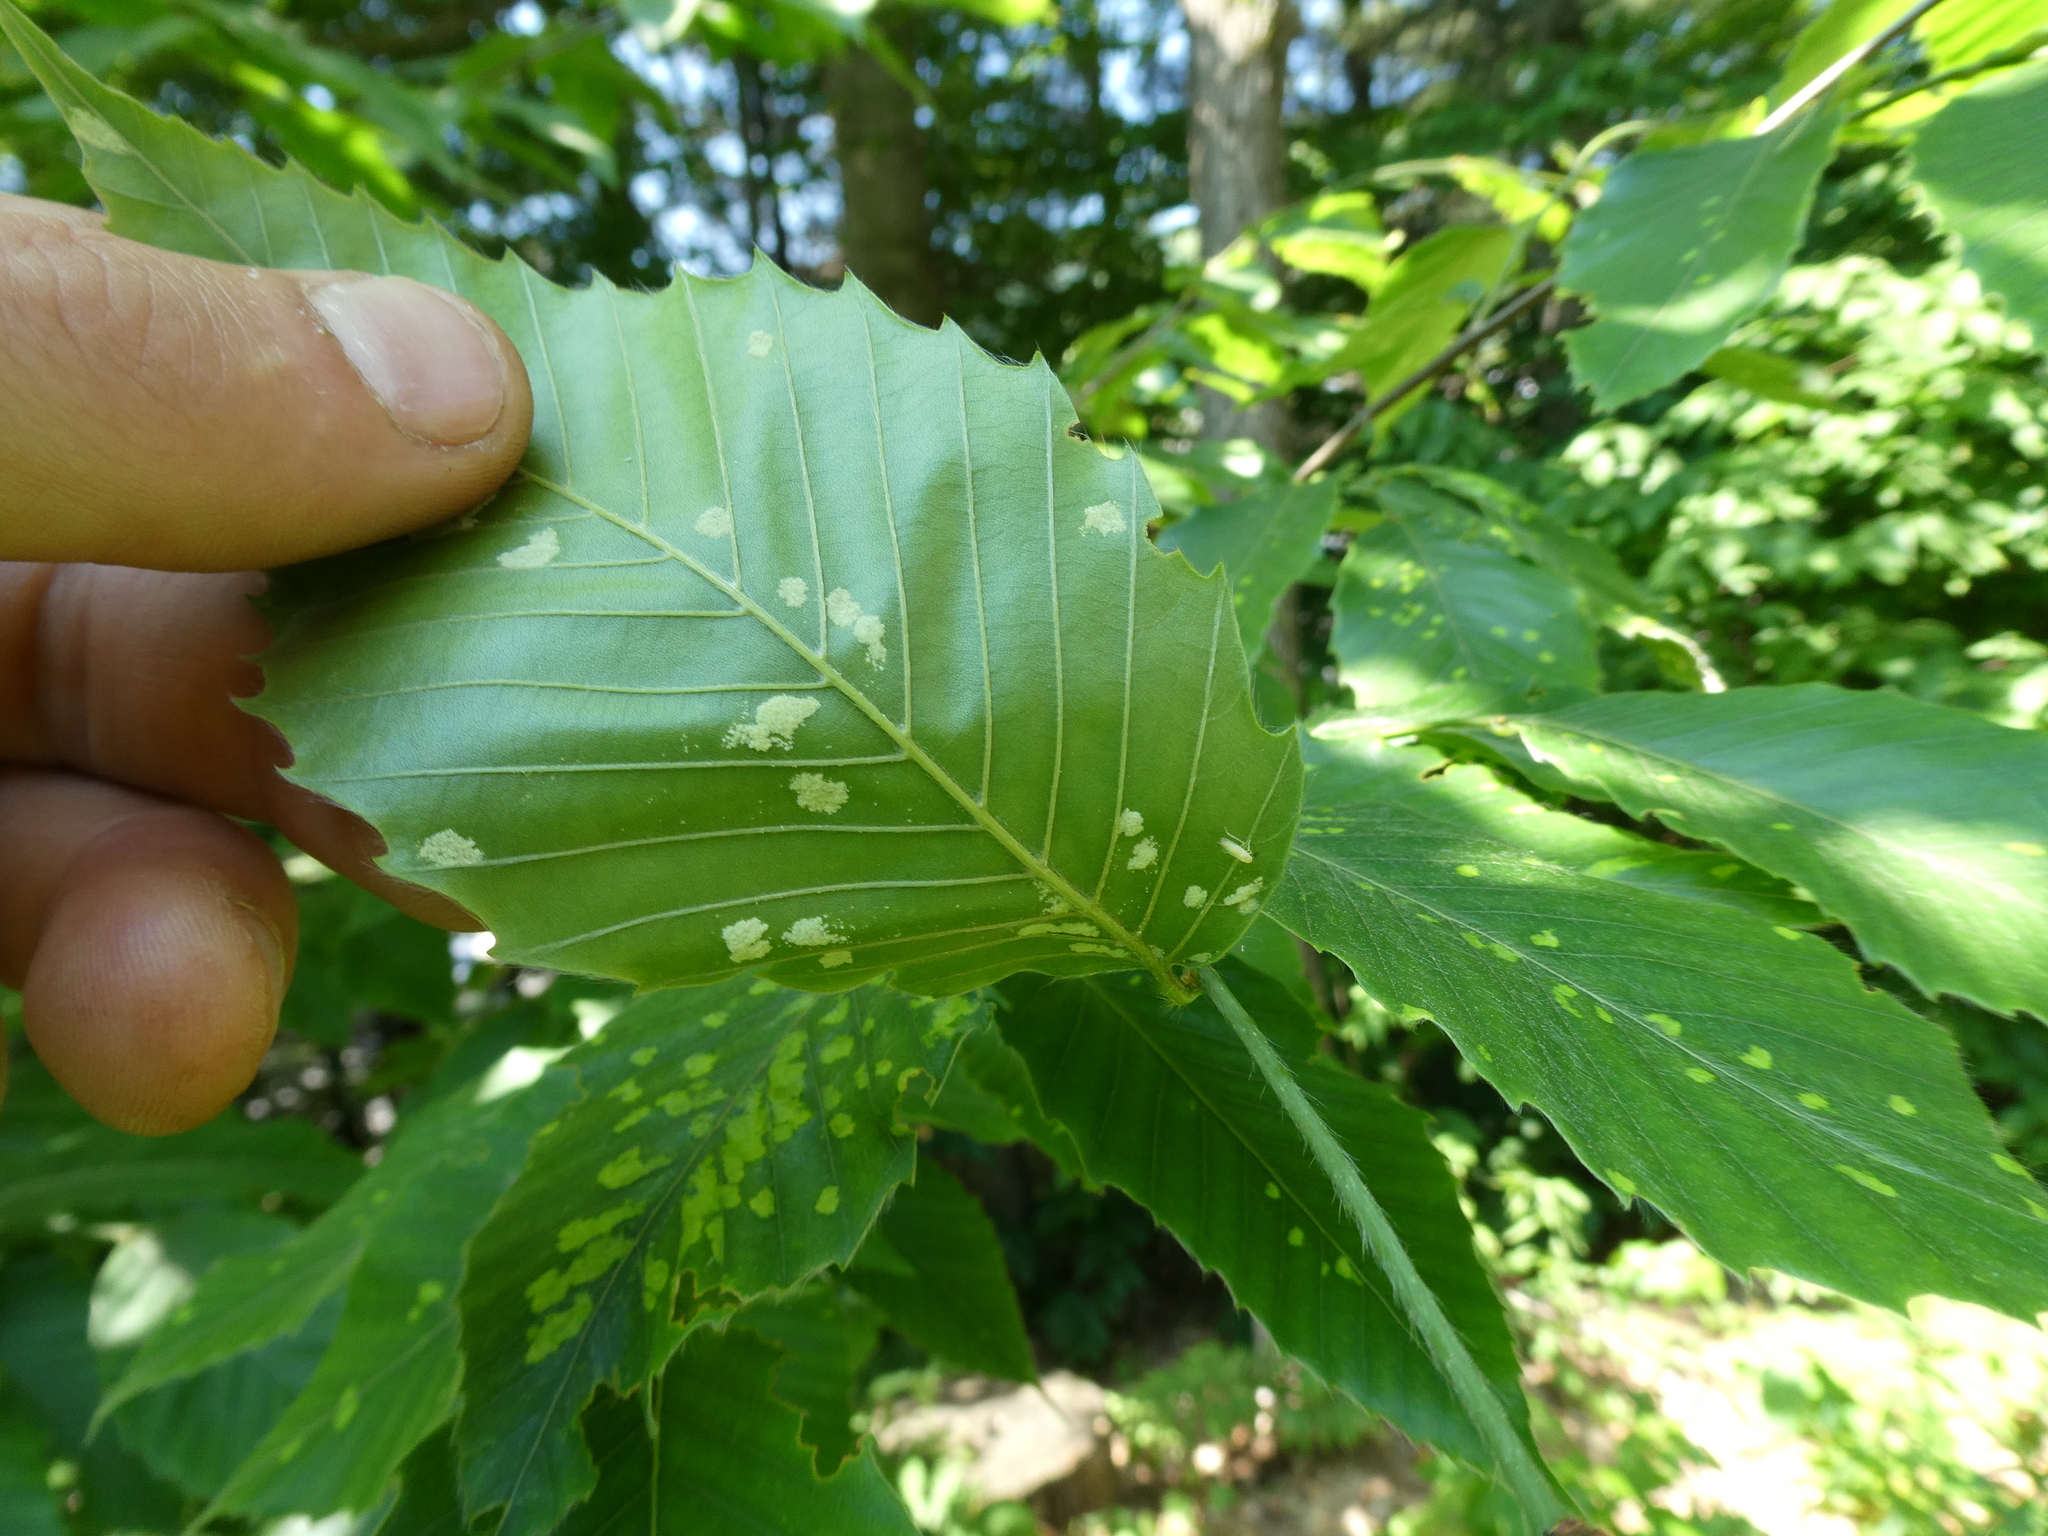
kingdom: Animalia
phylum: Arthropoda
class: Arachnida
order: Trombidiformes
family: Eriophyidae
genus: Acalitus
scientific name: Acalitus
